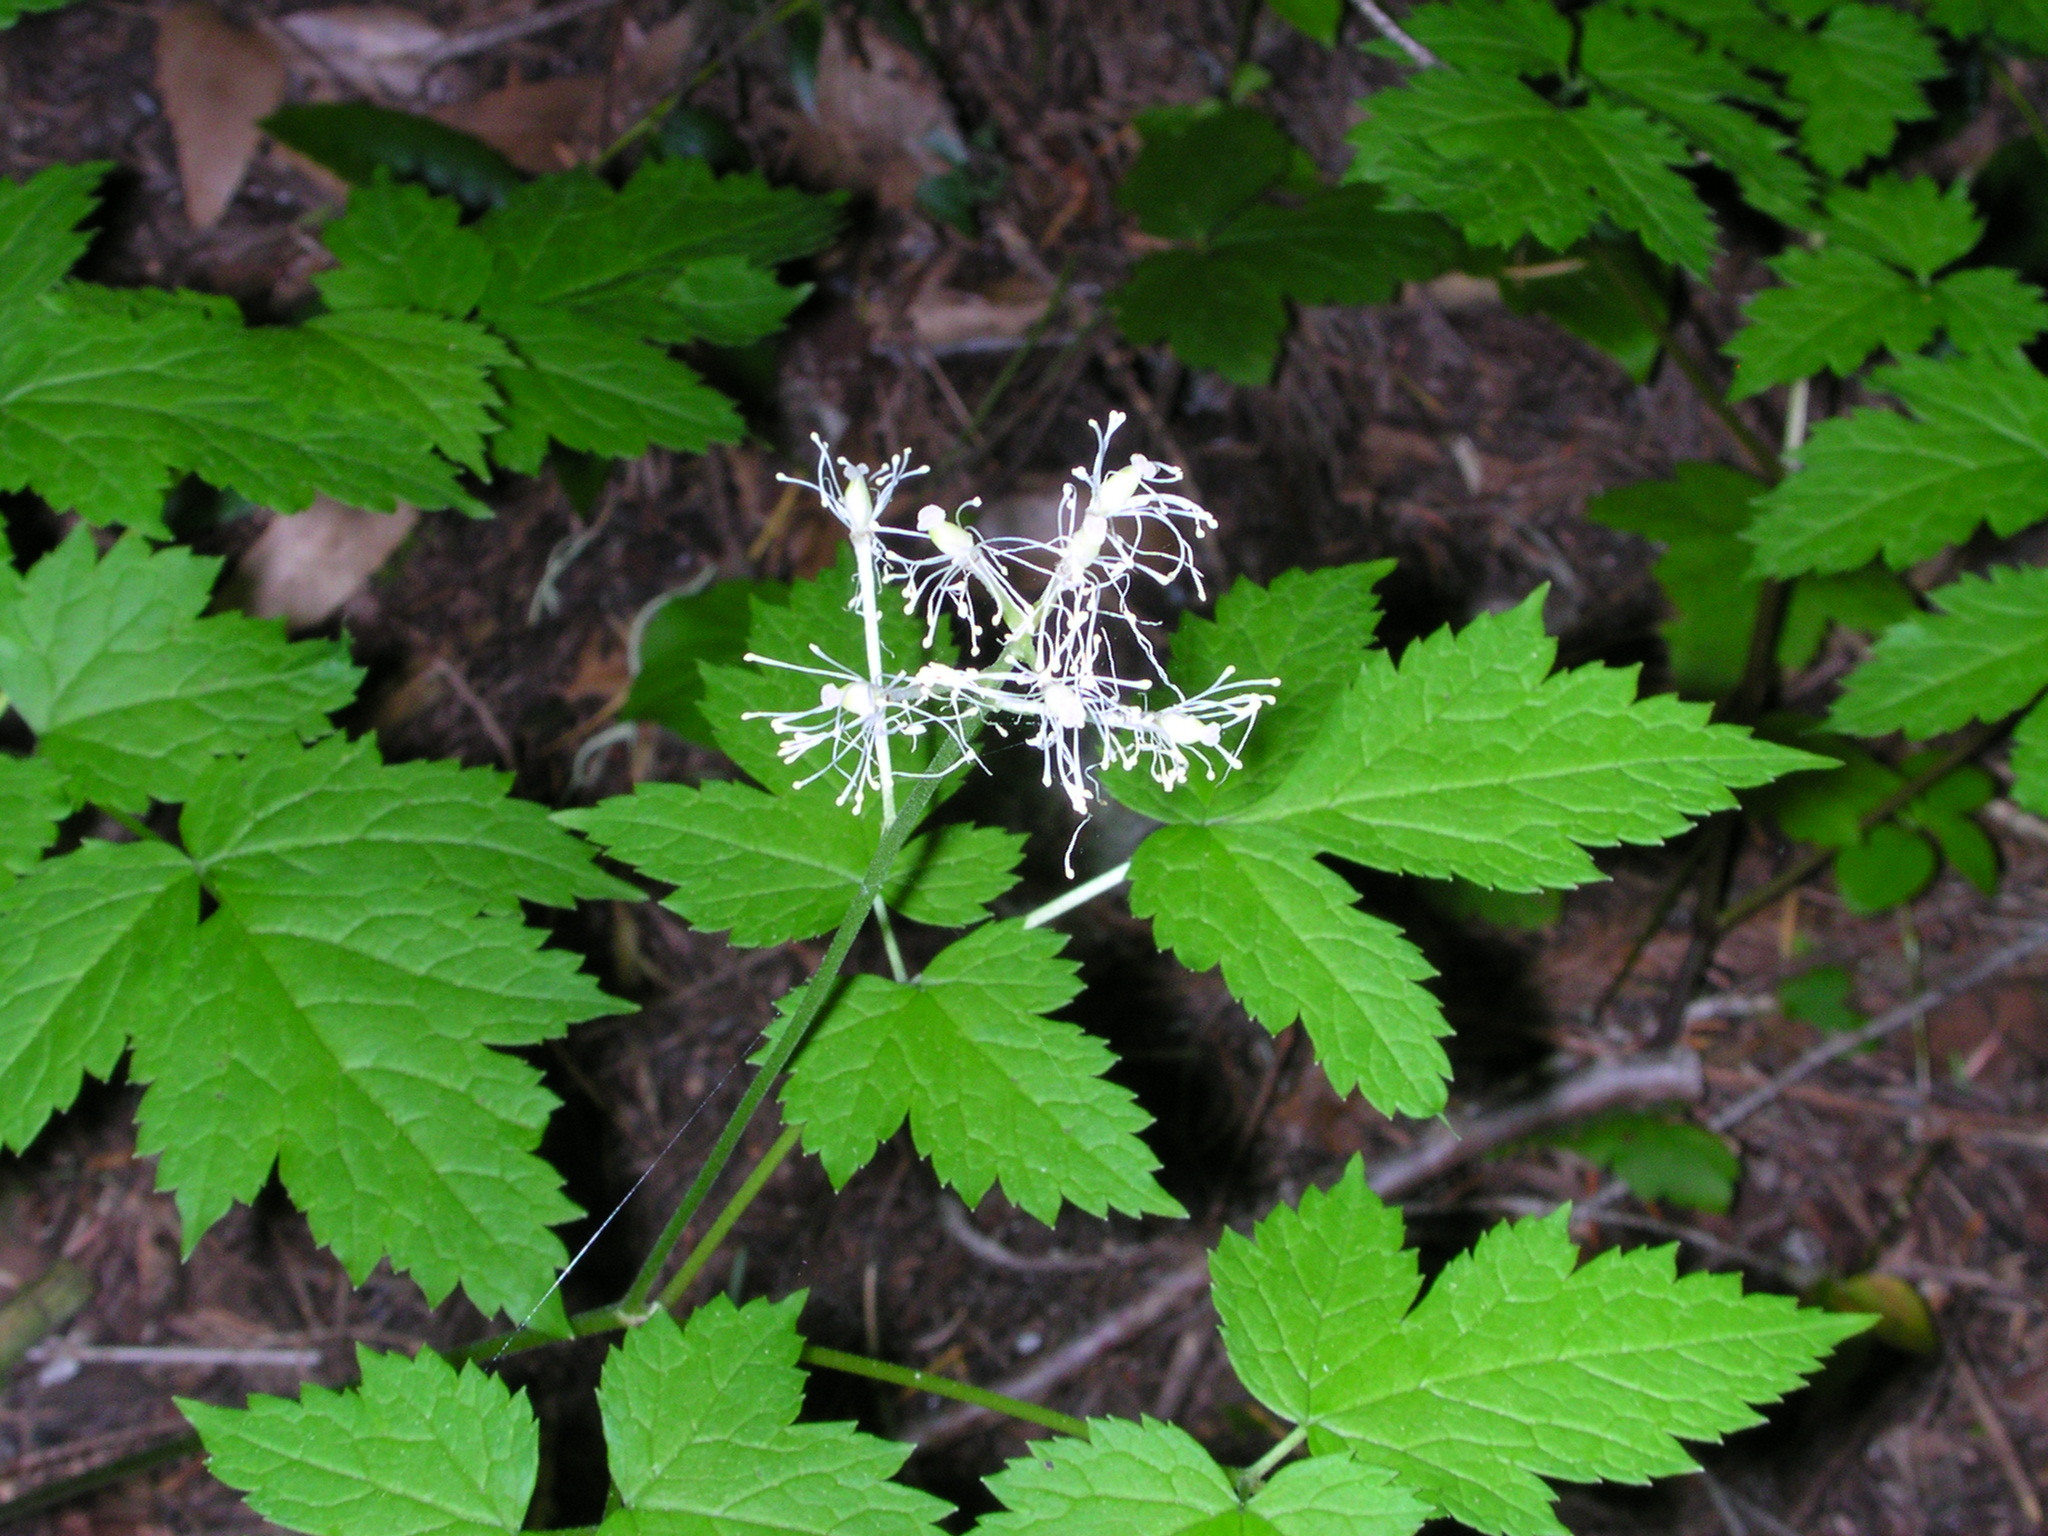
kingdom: Plantae
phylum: Tracheophyta
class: Magnoliopsida
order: Ranunculales
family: Ranunculaceae
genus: Actaea
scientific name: Actaea rubra
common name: Red baneberry
